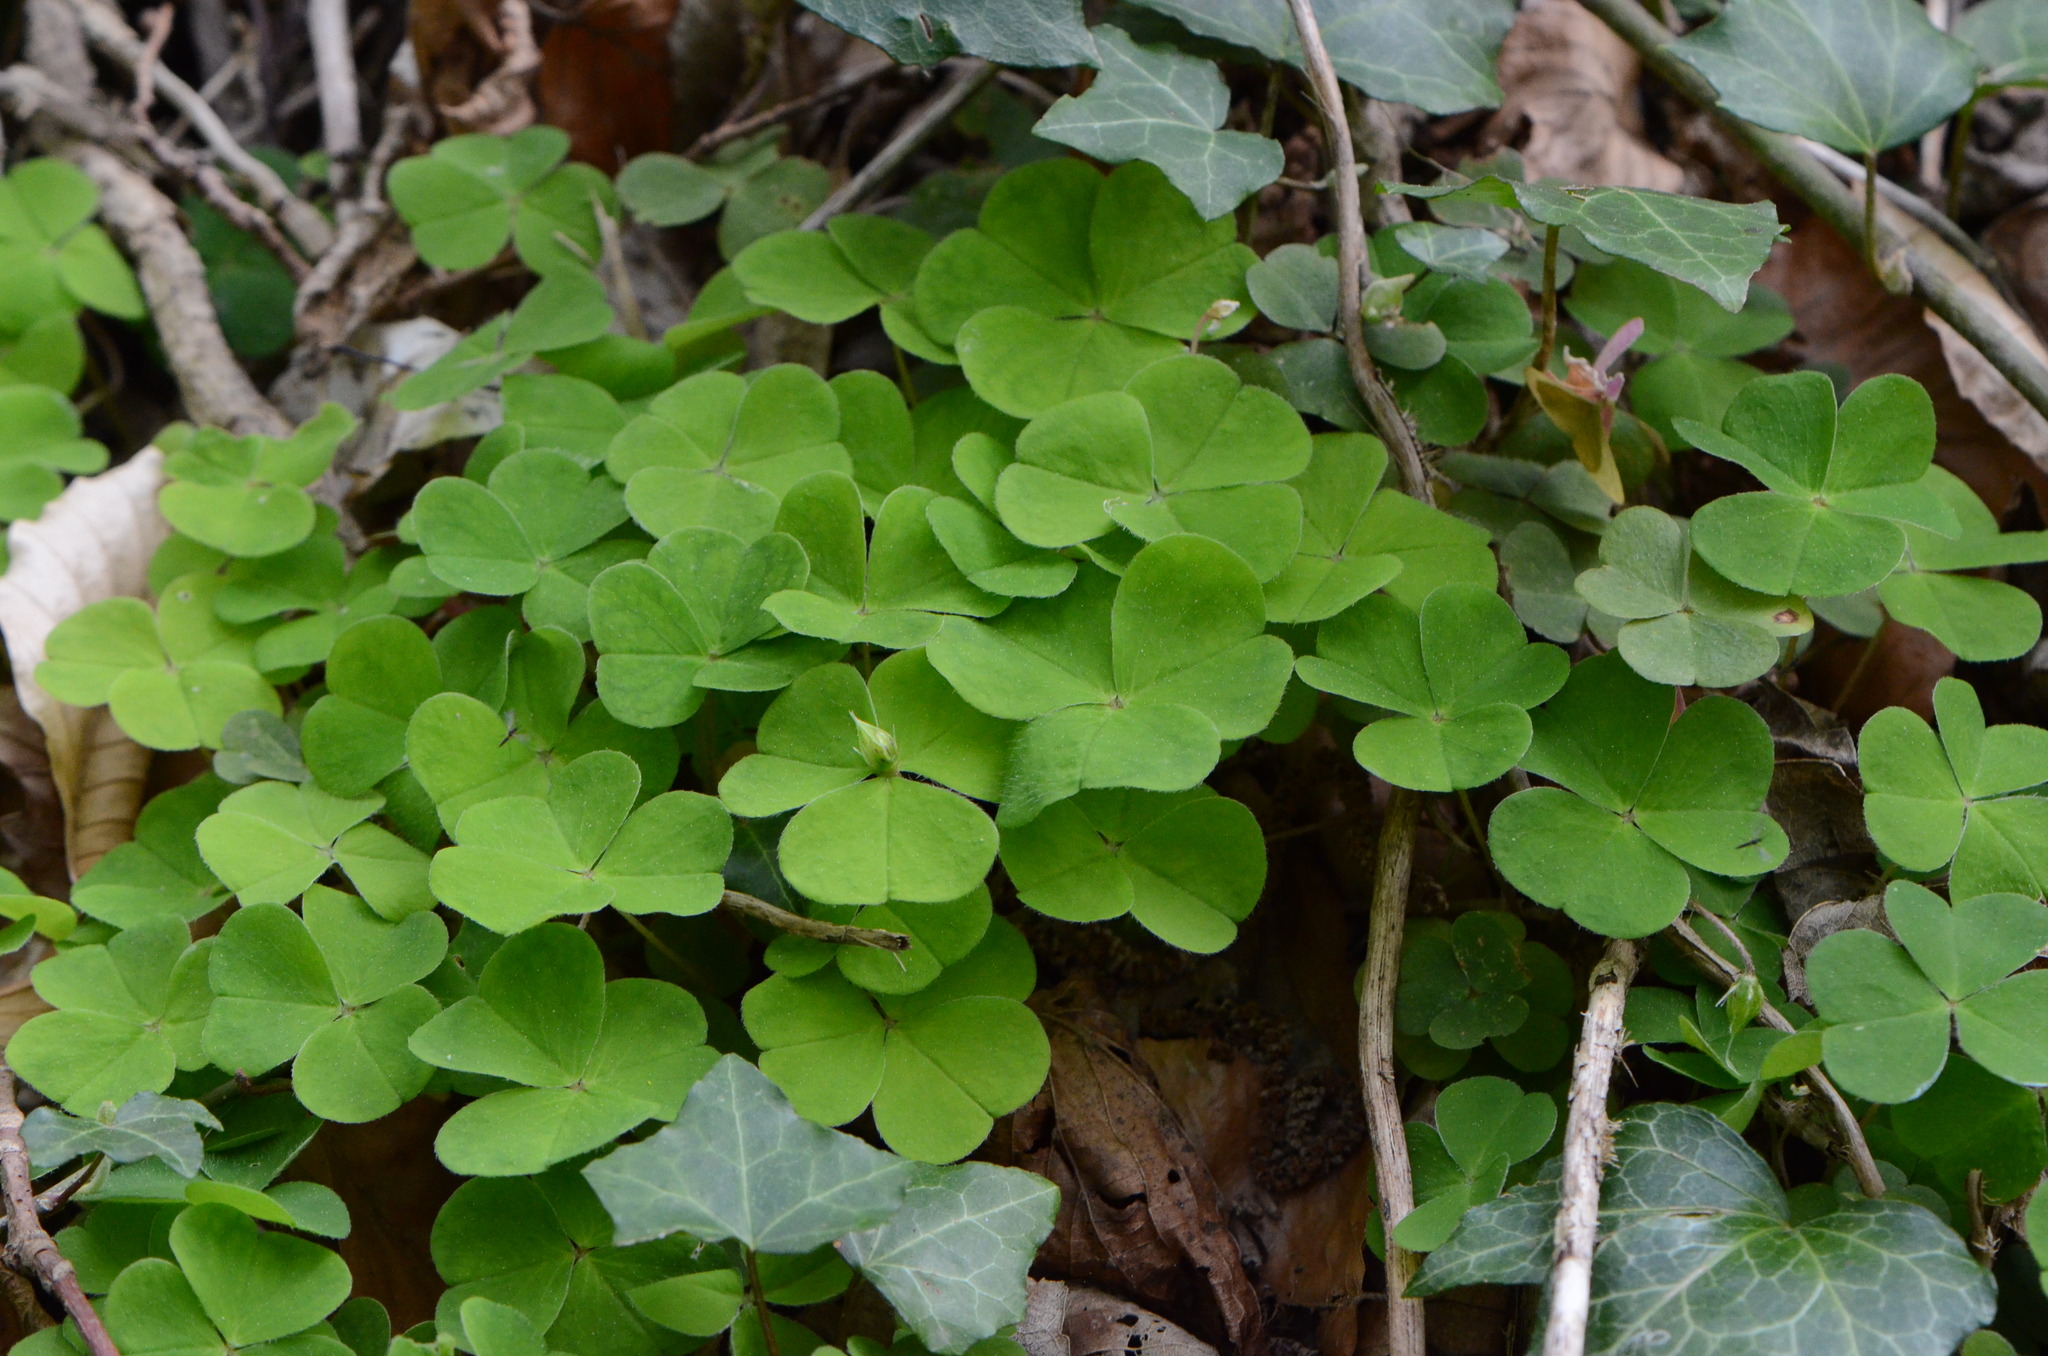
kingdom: Plantae
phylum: Tracheophyta
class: Magnoliopsida
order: Oxalidales
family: Oxalidaceae
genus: Oxalis
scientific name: Oxalis acetosella
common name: Wood-sorrel
